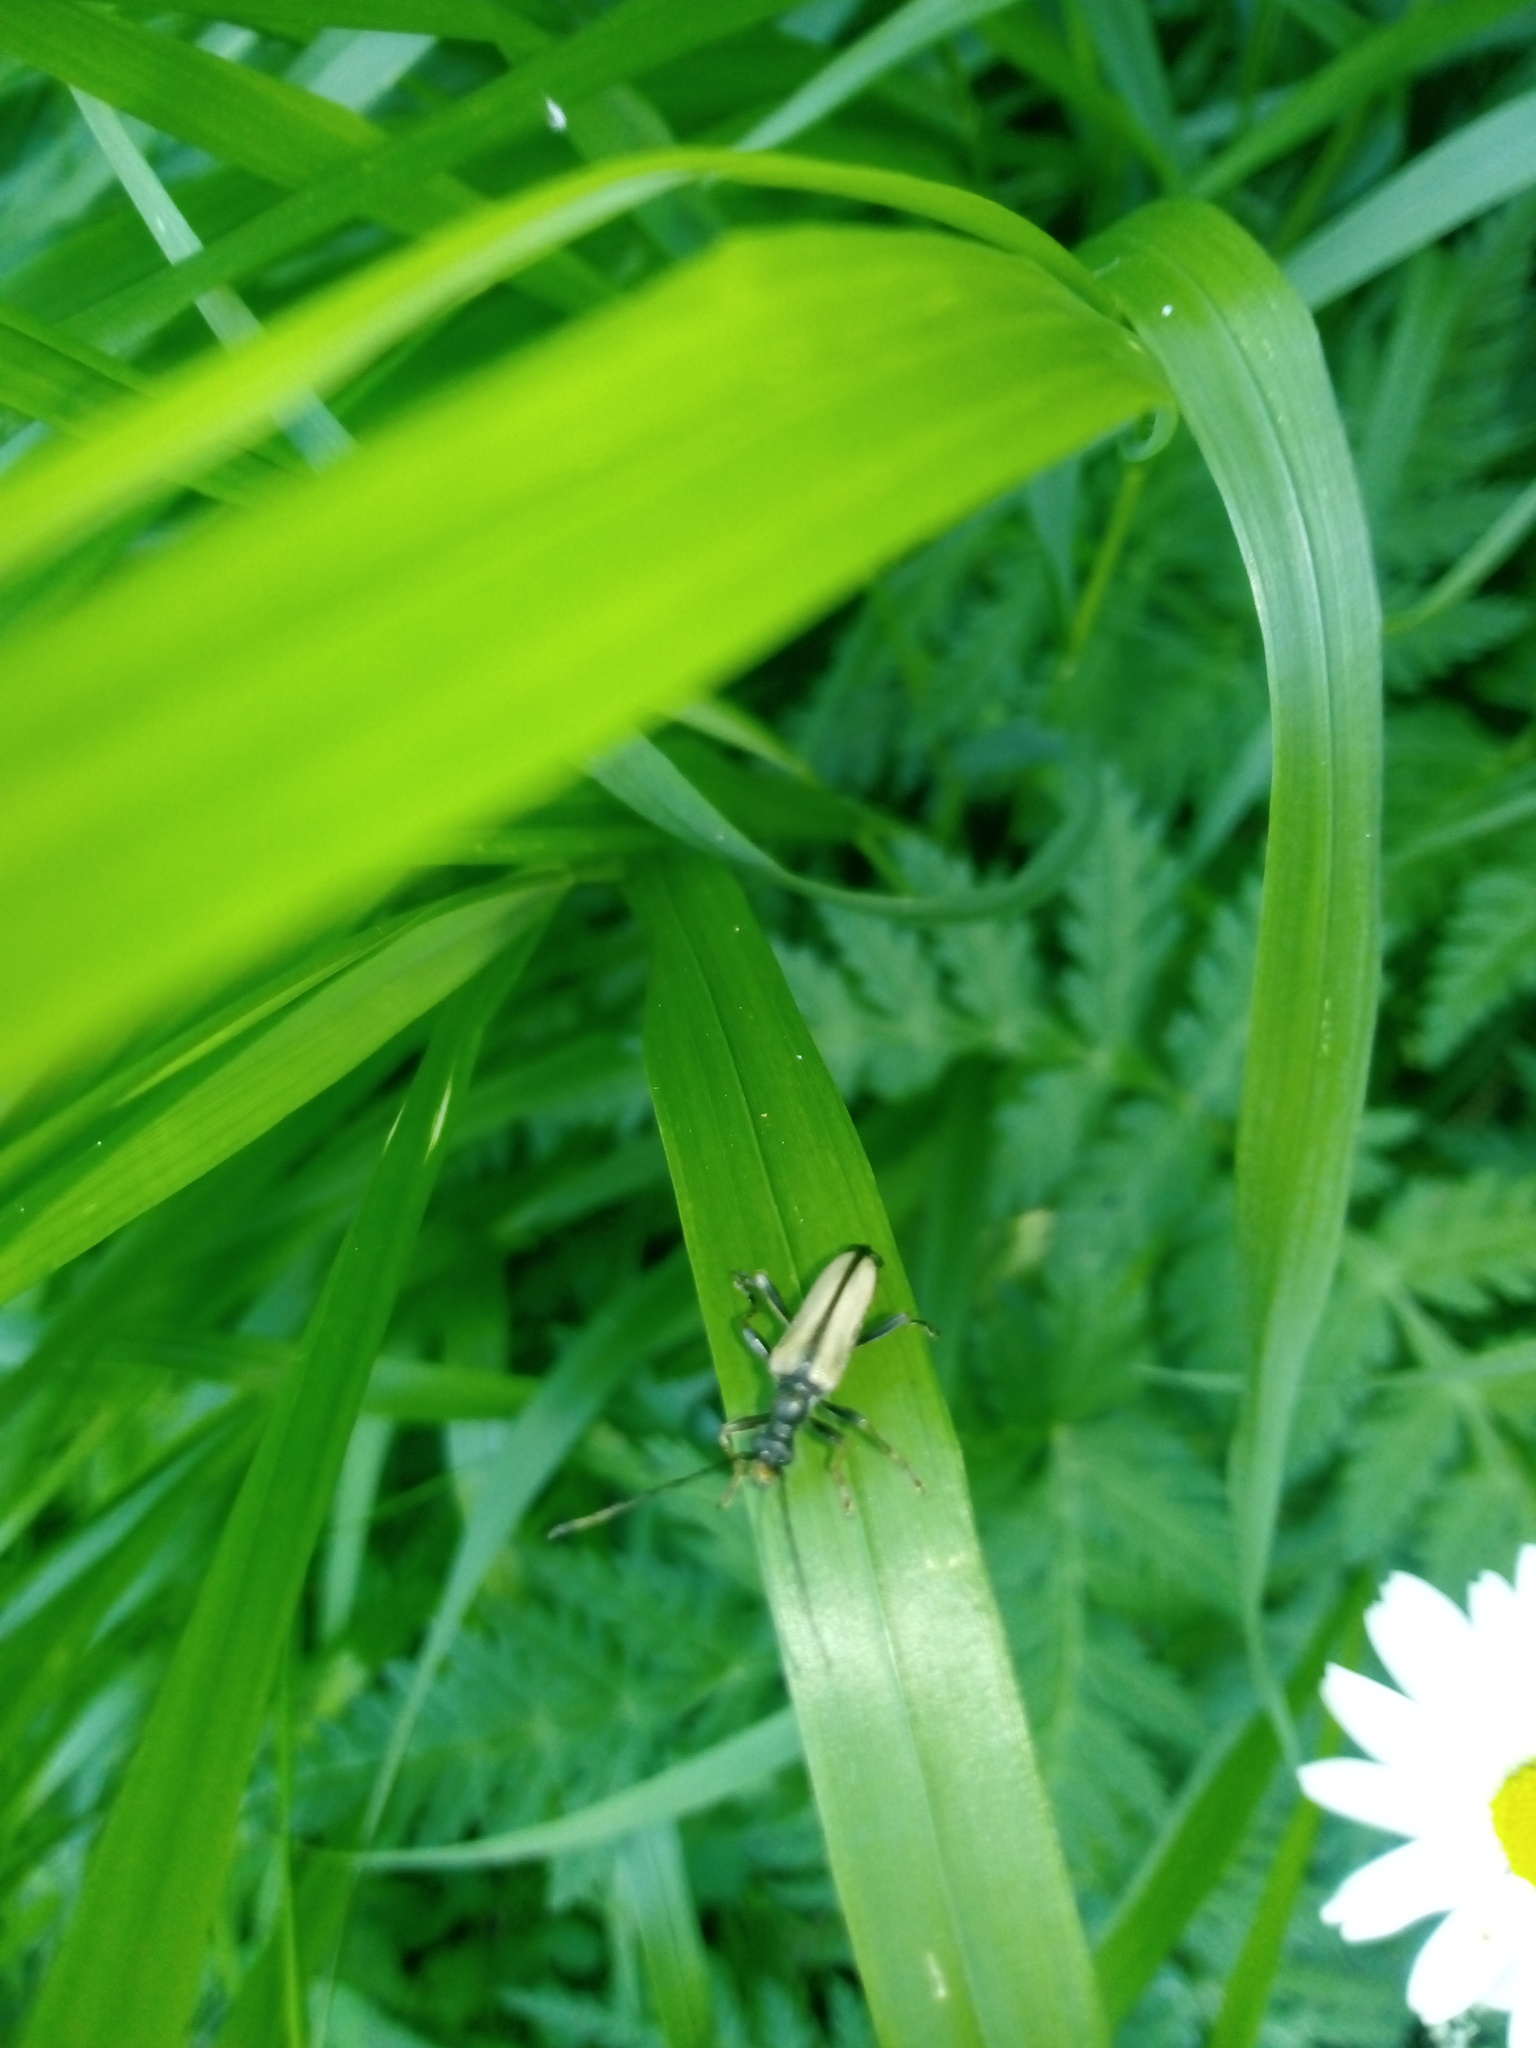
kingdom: Animalia
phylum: Arthropoda
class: Insecta
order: Coleoptera
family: Cerambycidae
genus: Pidonia
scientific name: Pidonia lurida
